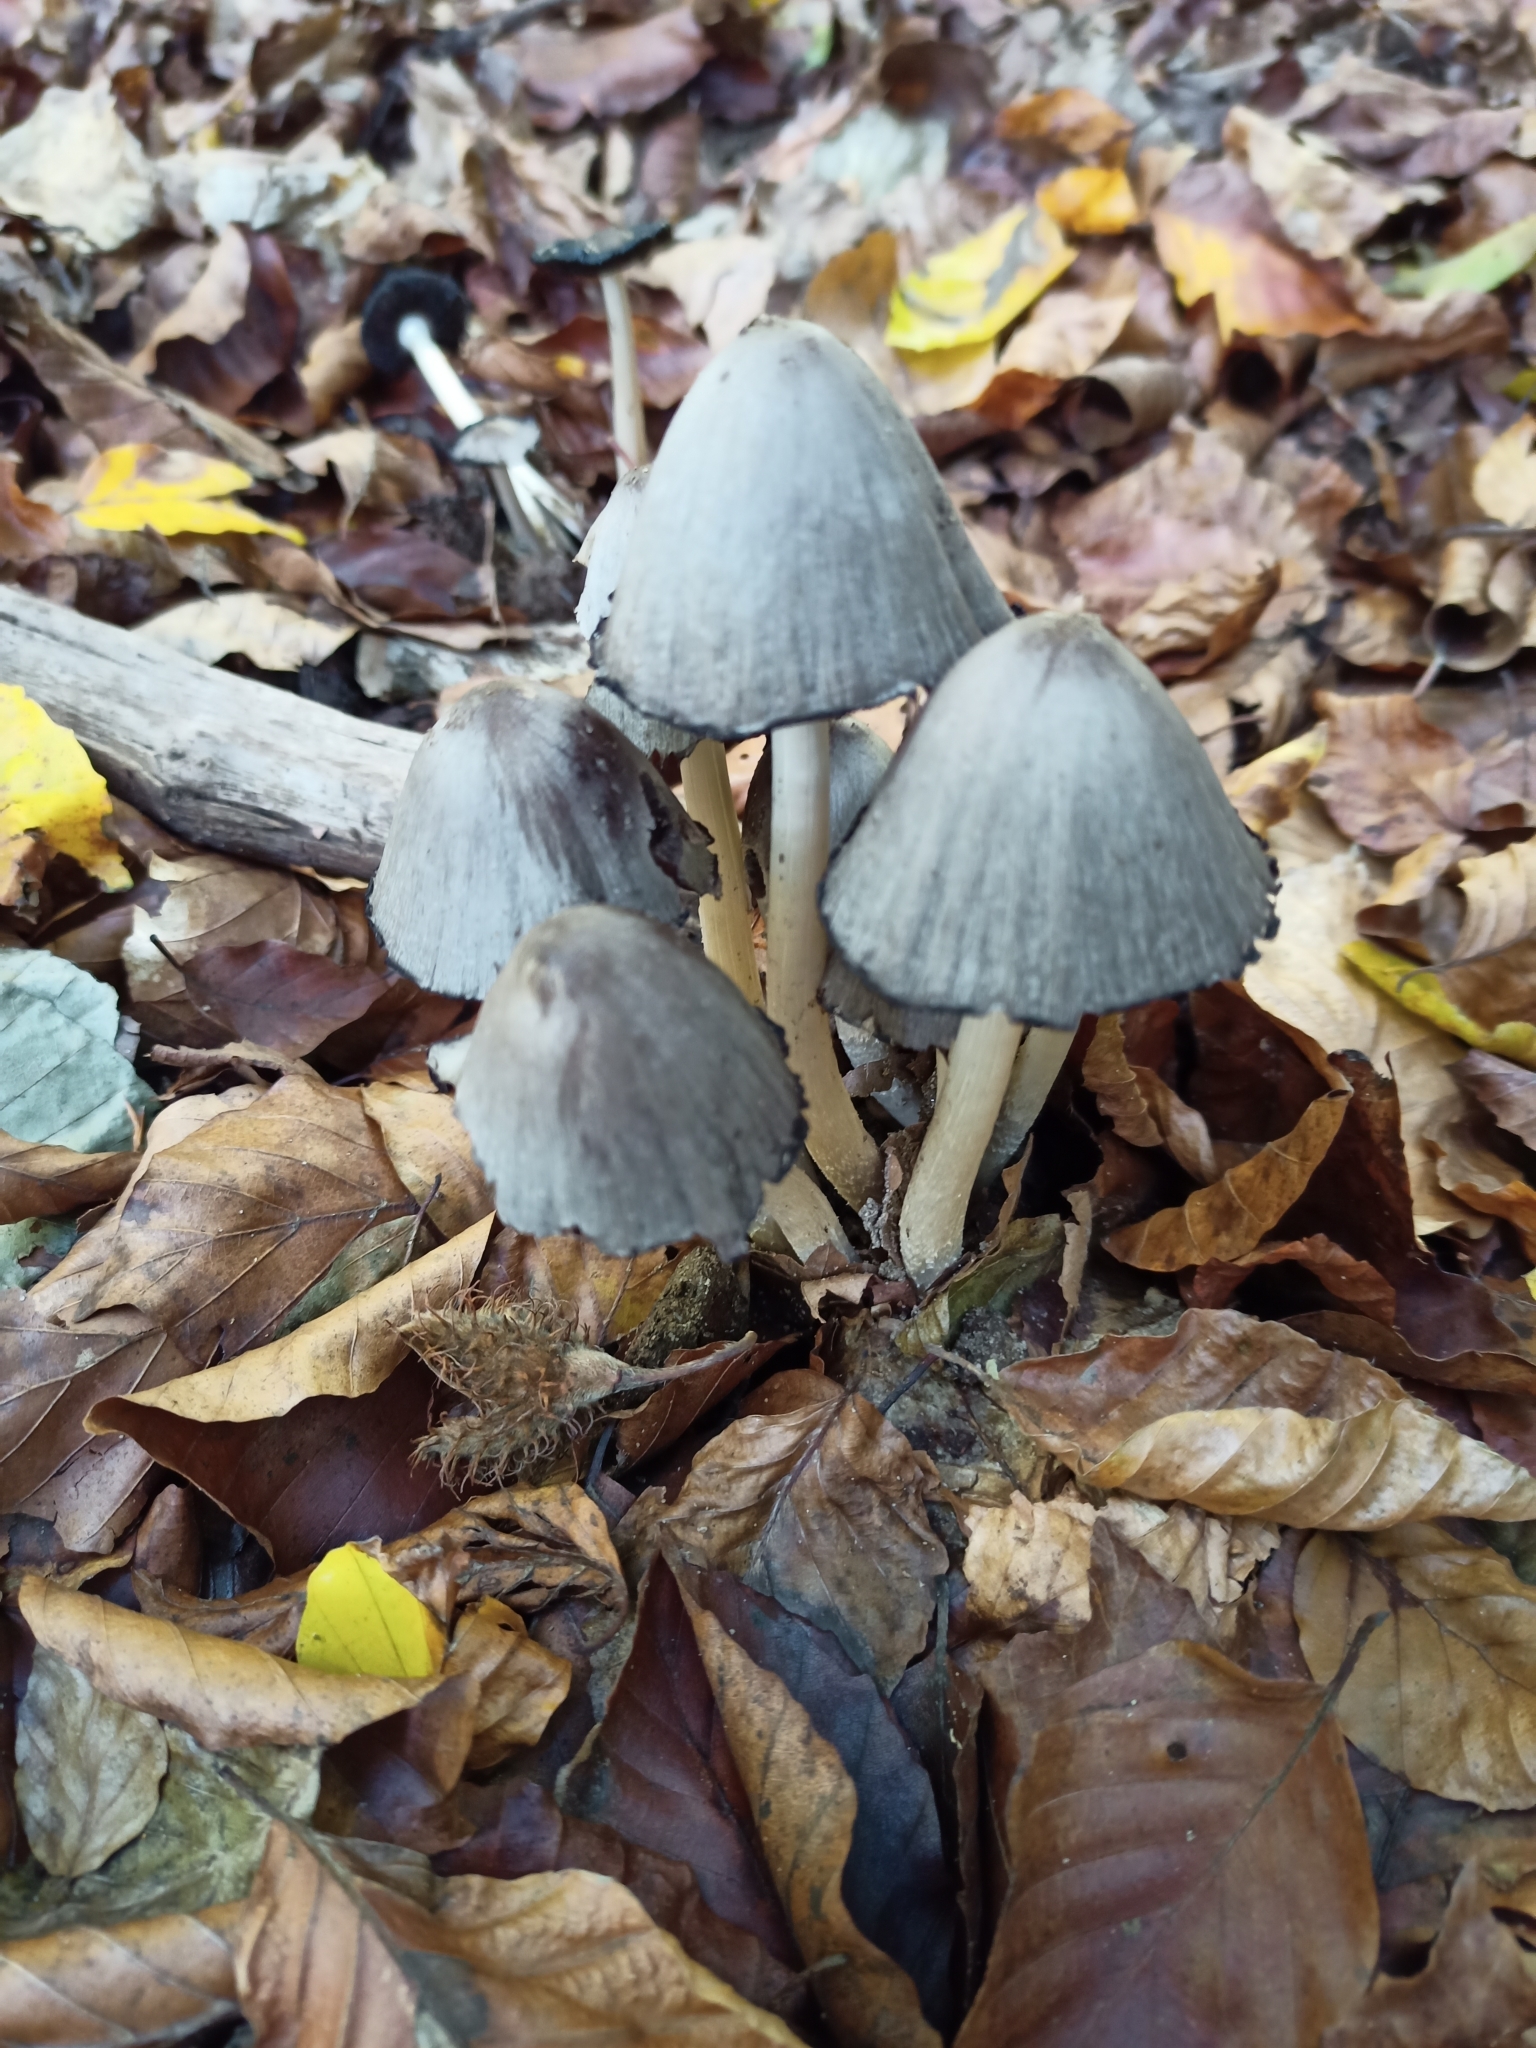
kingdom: Fungi
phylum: Basidiomycota
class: Agaricomycetes
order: Agaricales
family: Psathyrellaceae
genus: Coprinopsis
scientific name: Coprinopsis atramentaria
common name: Common ink-cap
